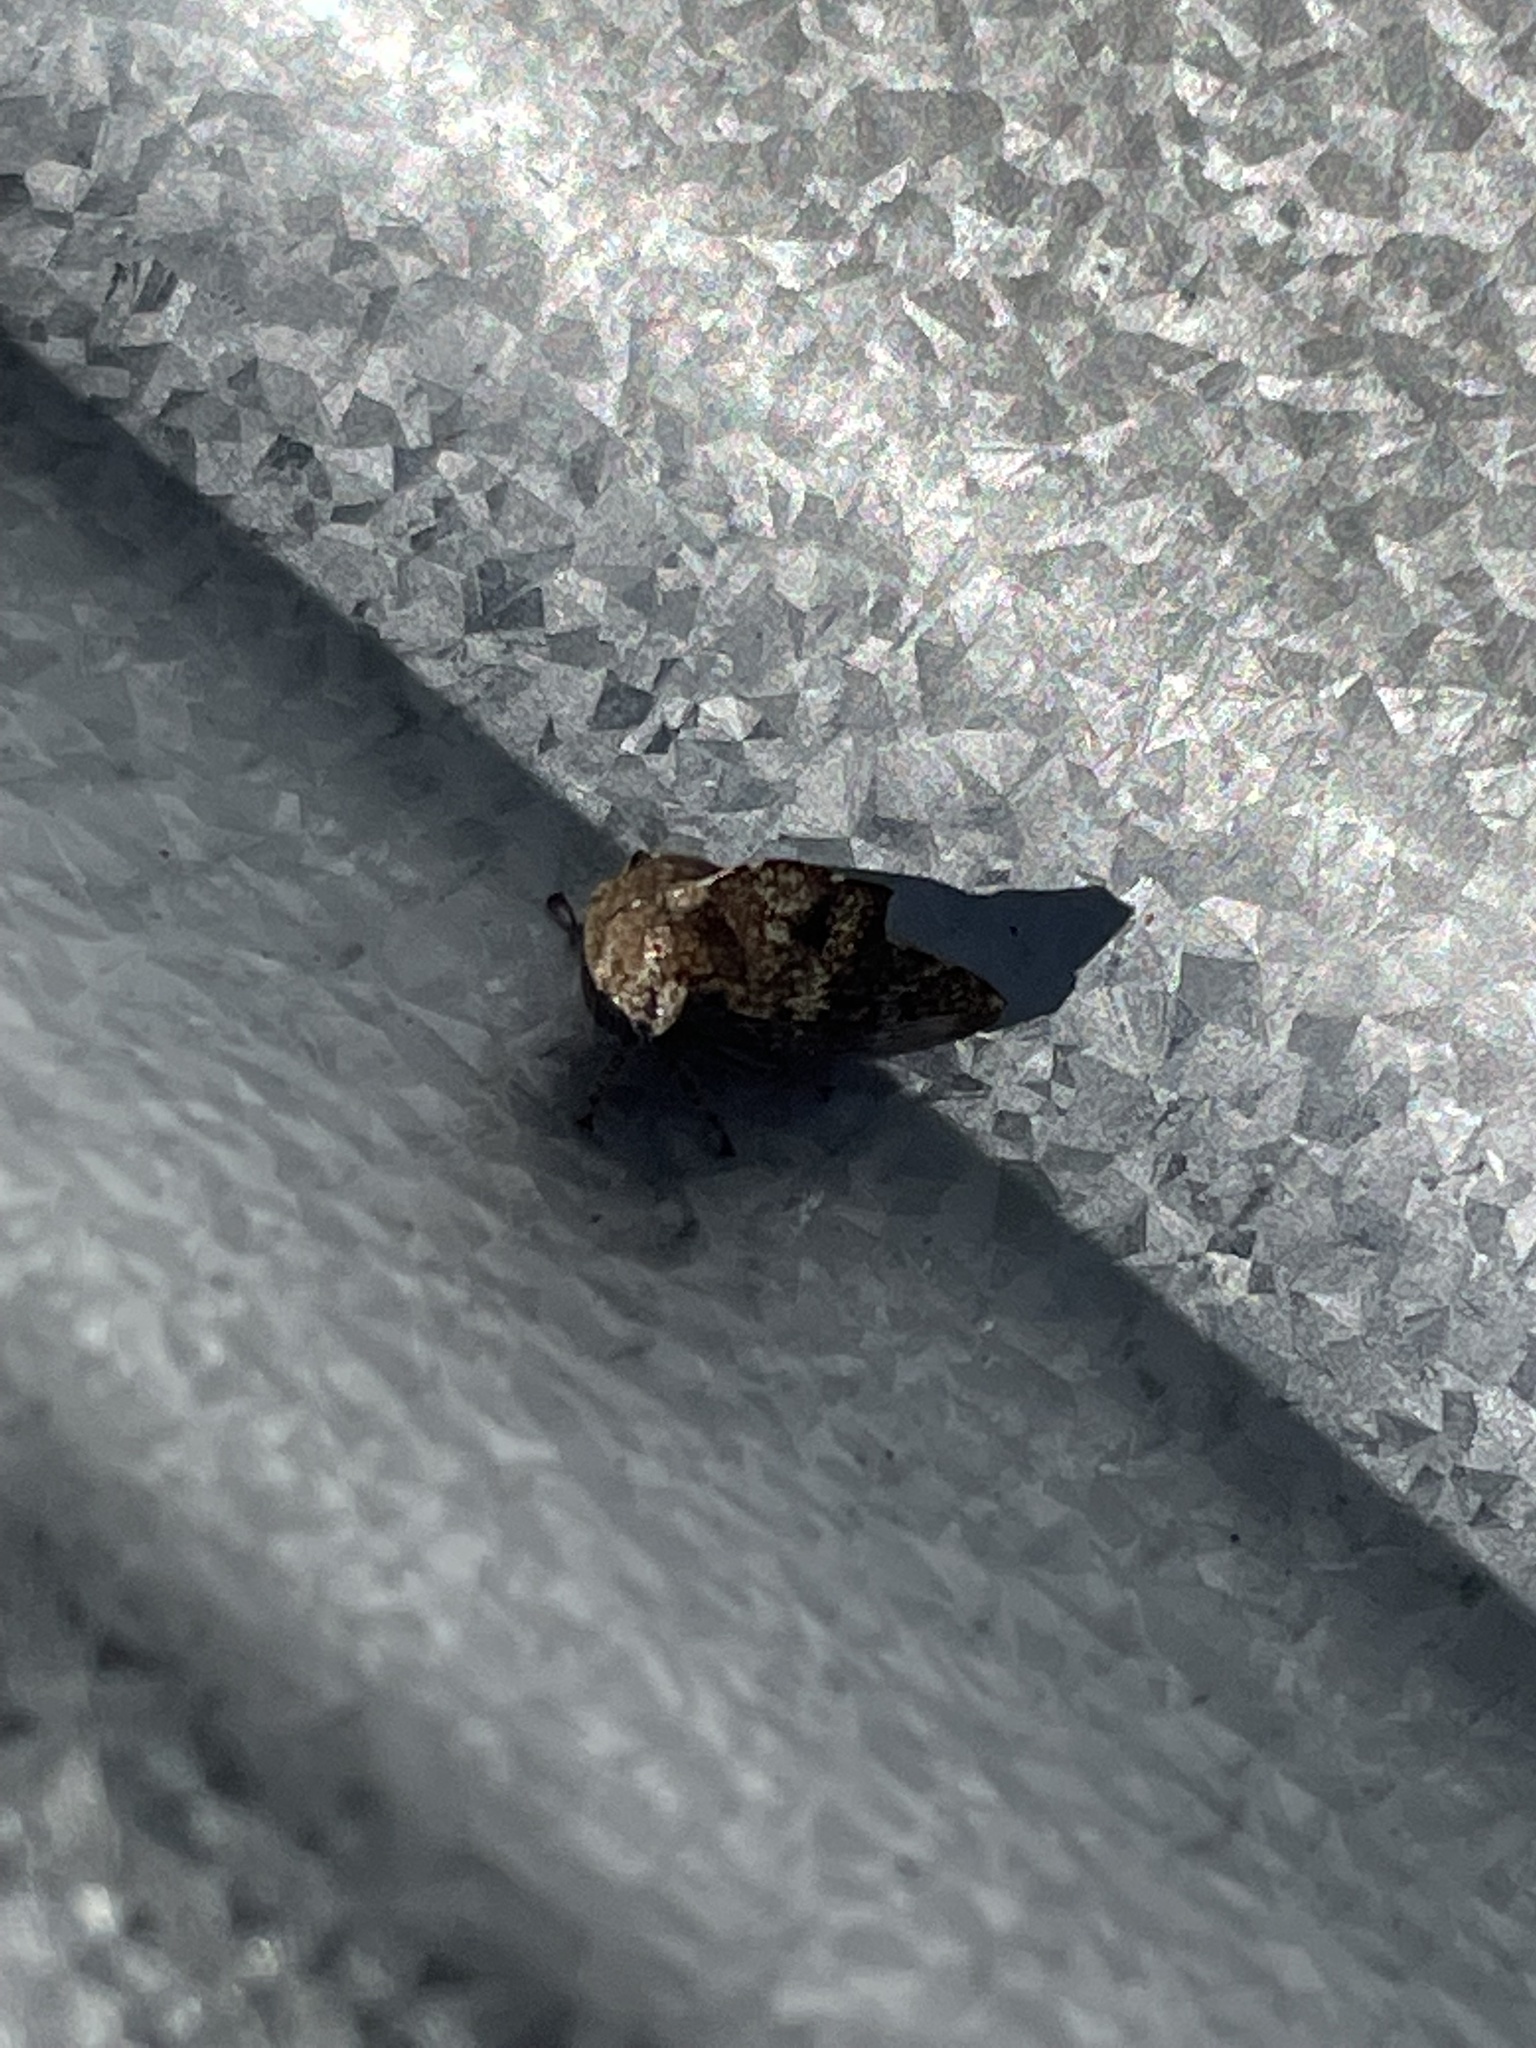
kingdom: Animalia
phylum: Arthropoda
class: Insecta
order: Hemiptera
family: Membracidae
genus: Telamona
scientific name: Telamona reclivata
